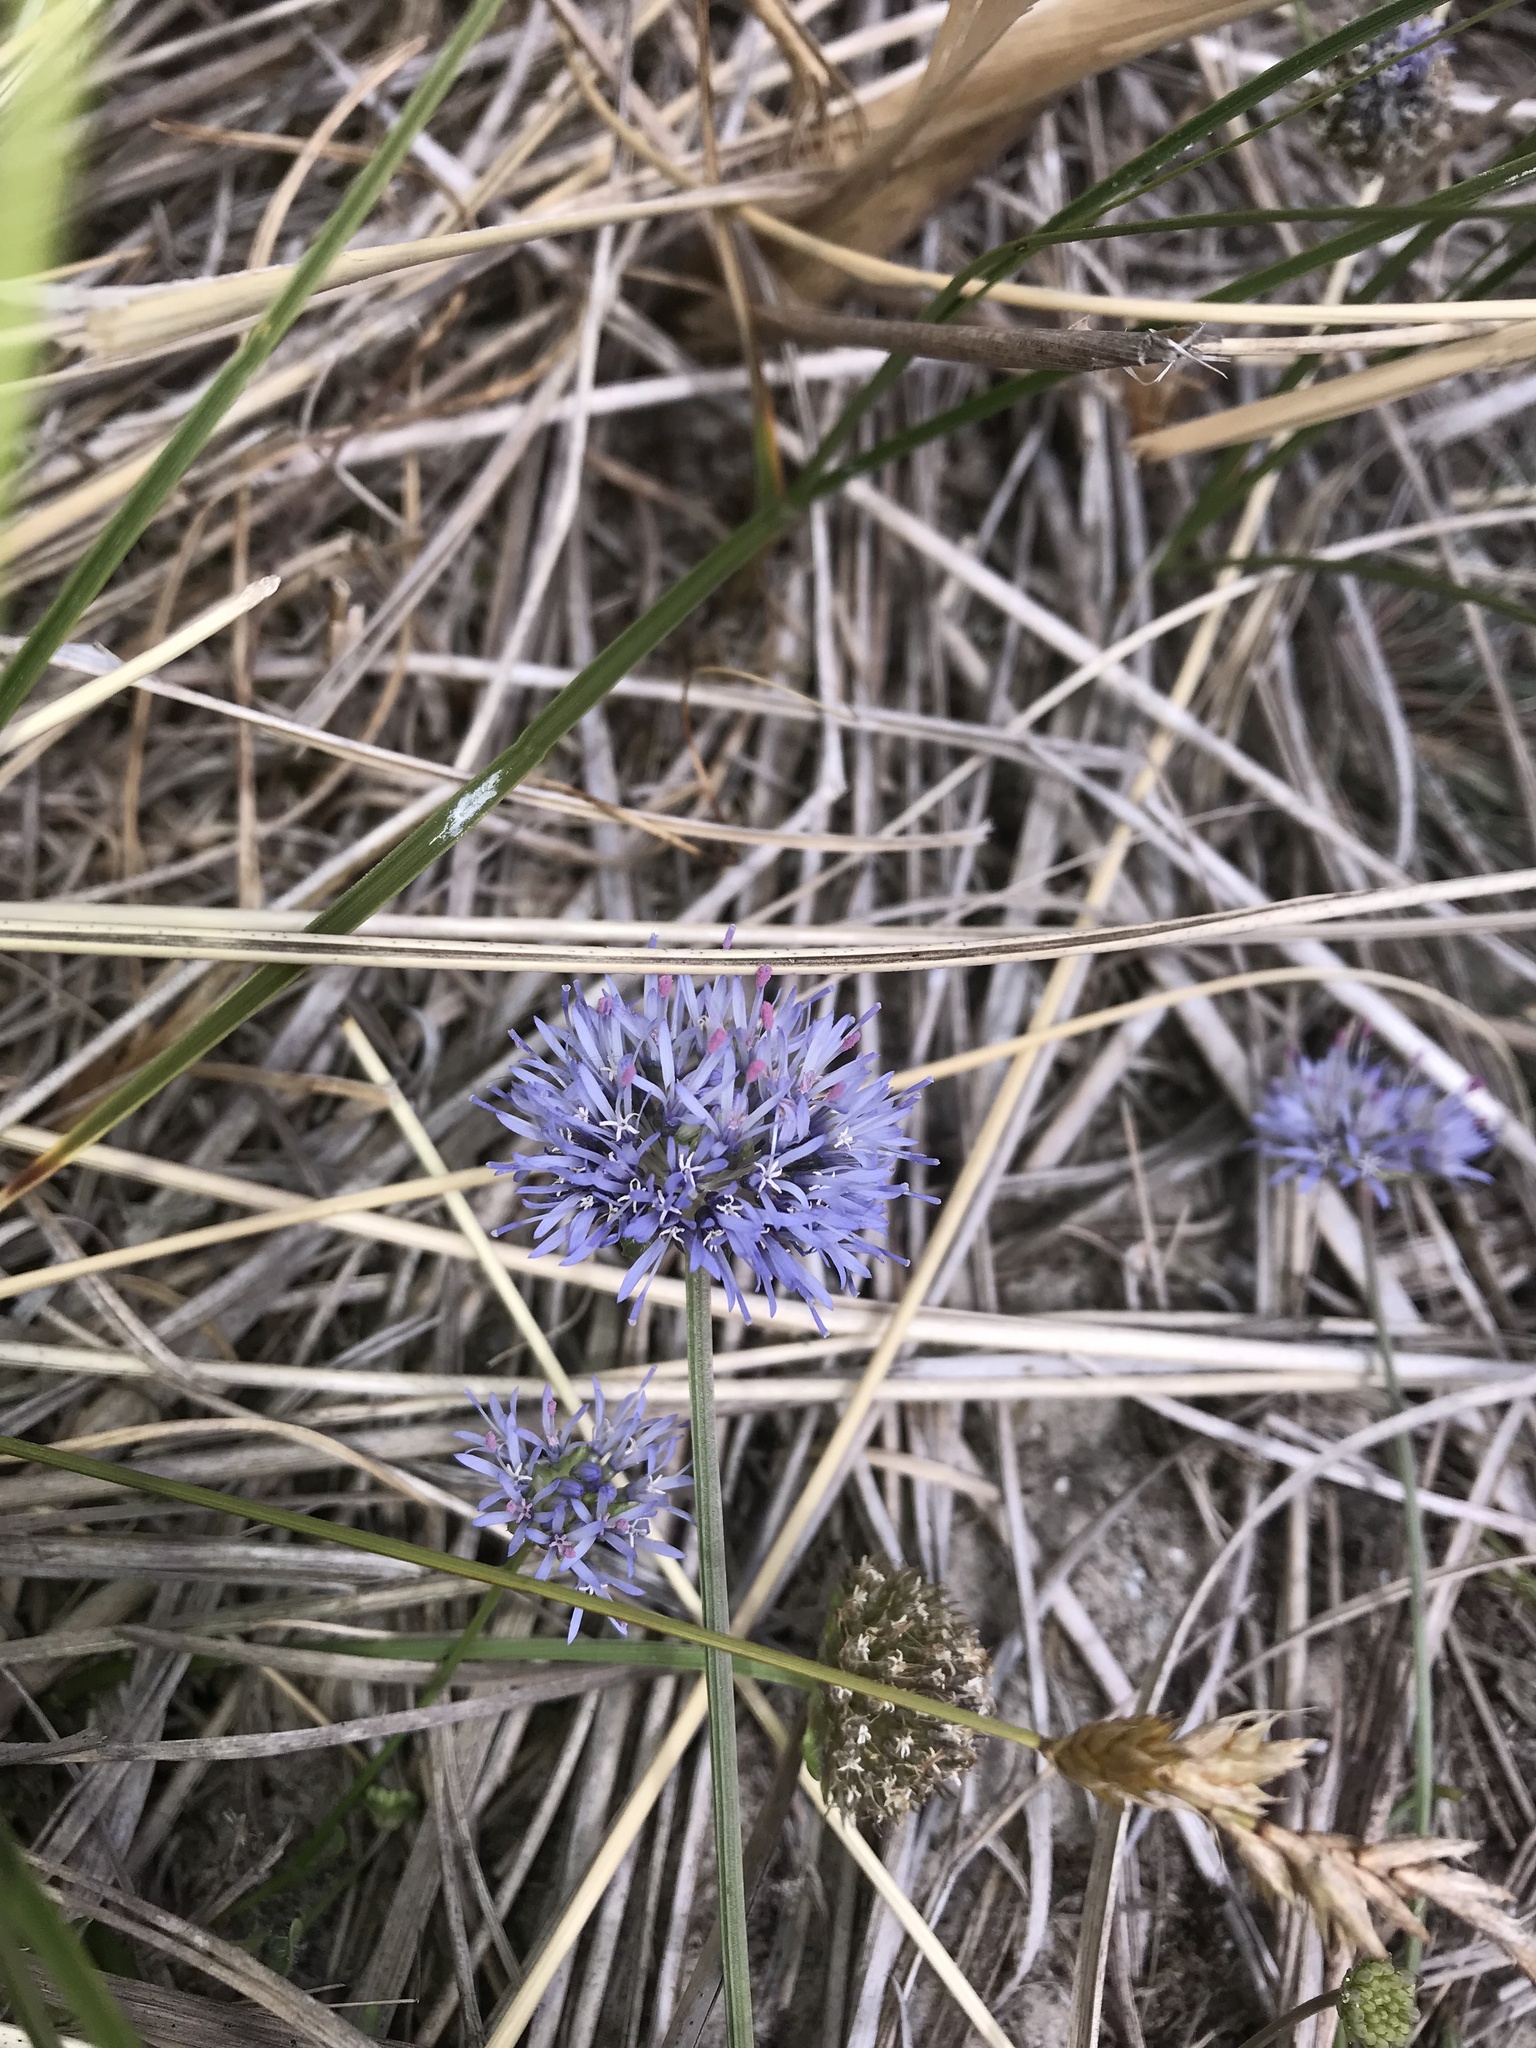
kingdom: Plantae
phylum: Tracheophyta
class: Magnoliopsida
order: Asterales
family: Campanulaceae
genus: Jasione
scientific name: Jasione montana
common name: Sheep's-bit
